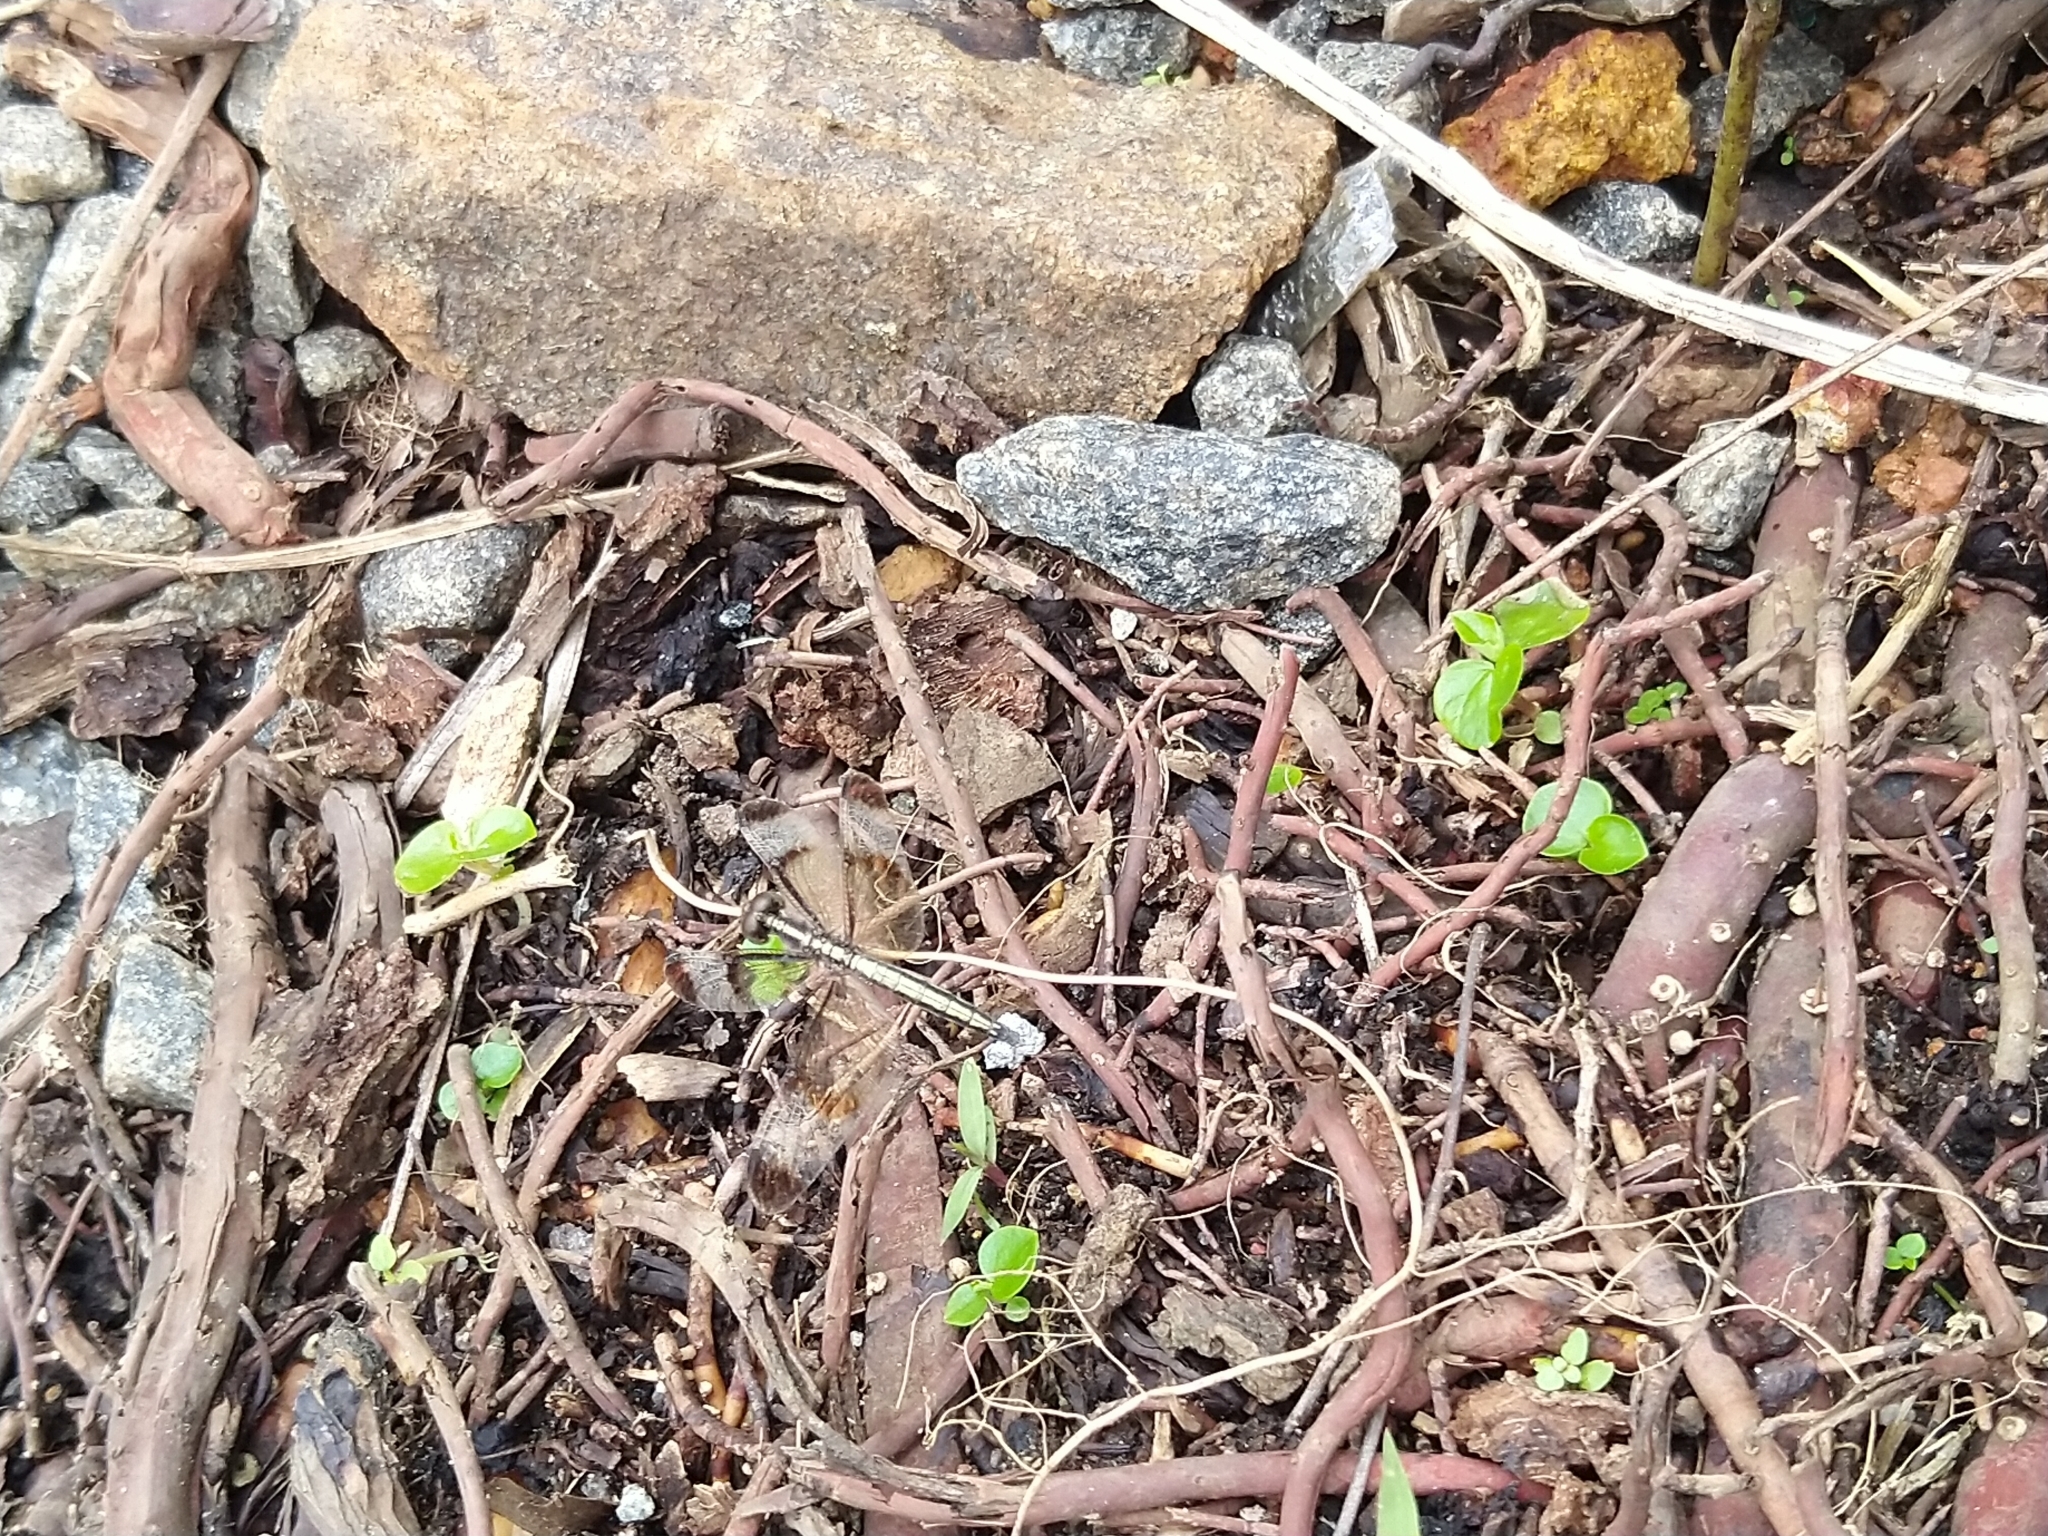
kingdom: Animalia
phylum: Arthropoda
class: Insecta
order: Odonata
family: Libellulidae
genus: Neurothemis
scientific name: Neurothemis tullia
